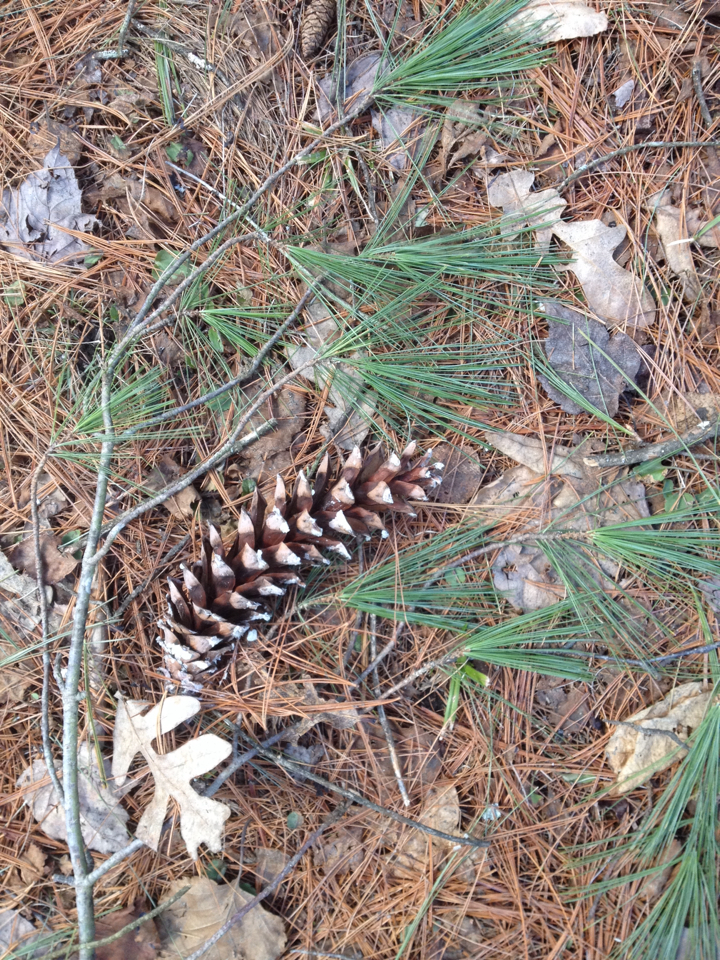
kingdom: Plantae
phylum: Tracheophyta
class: Pinopsida
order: Pinales
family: Pinaceae
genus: Pinus
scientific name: Pinus strobus
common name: Weymouth pine
